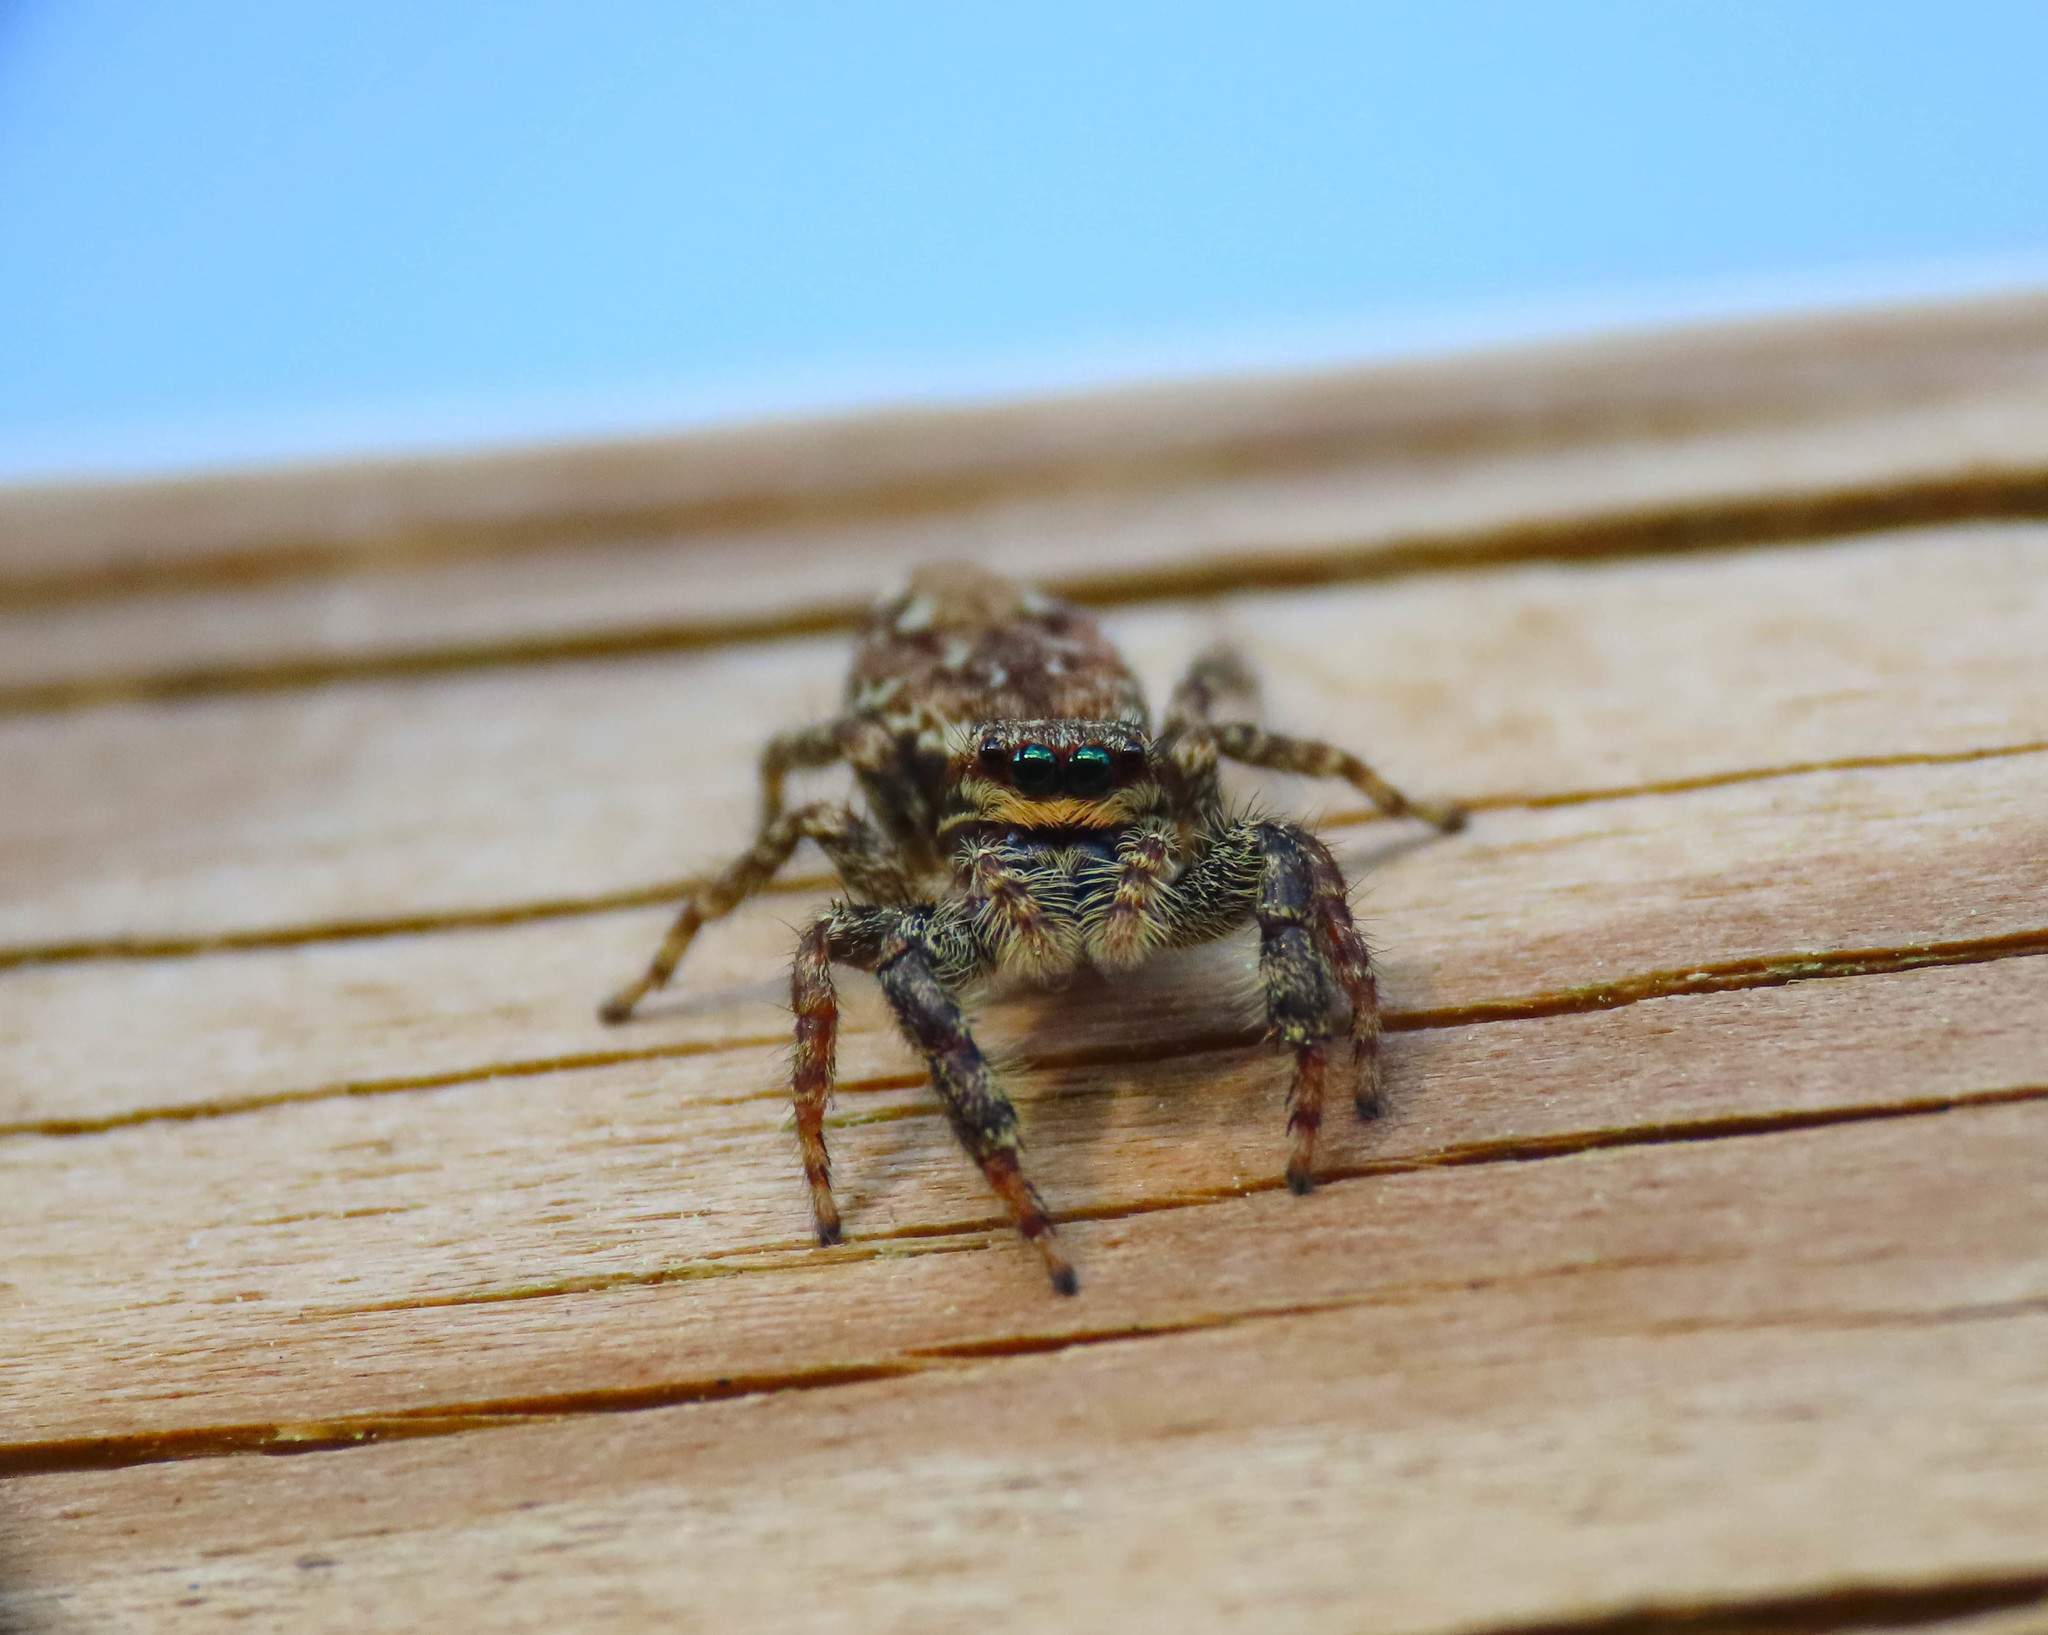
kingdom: Animalia
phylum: Arthropoda
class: Arachnida
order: Araneae
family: Salticidae
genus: Marpissa
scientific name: Marpissa muscosa
